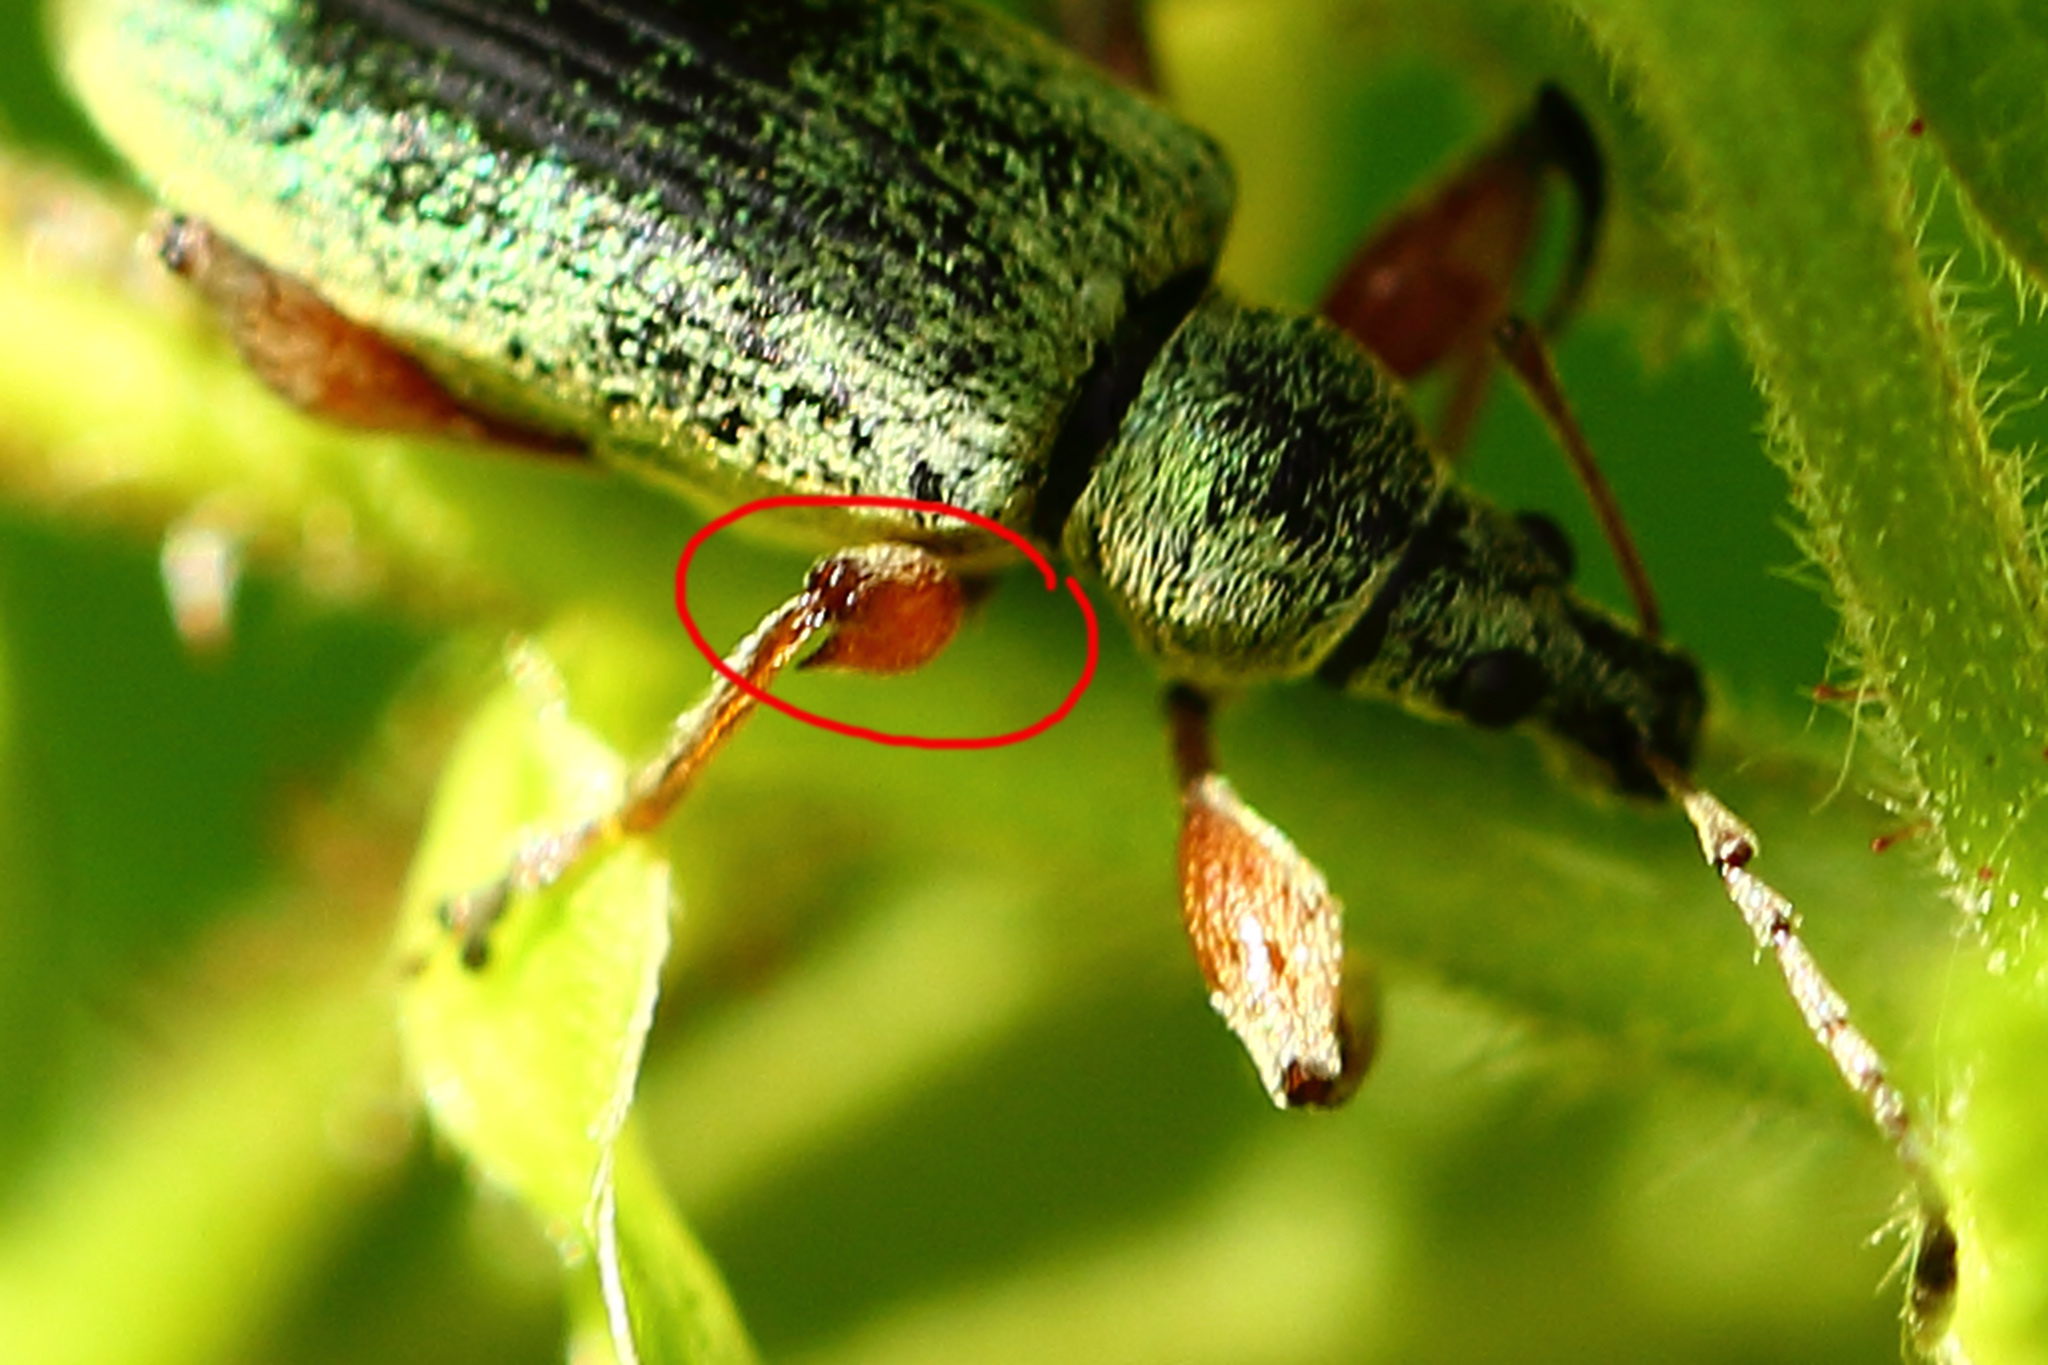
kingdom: Animalia
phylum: Arthropoda
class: Insecta
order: Coleoptera
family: Curculionidae
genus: Phyllobius
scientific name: Phyllobius glaucus
